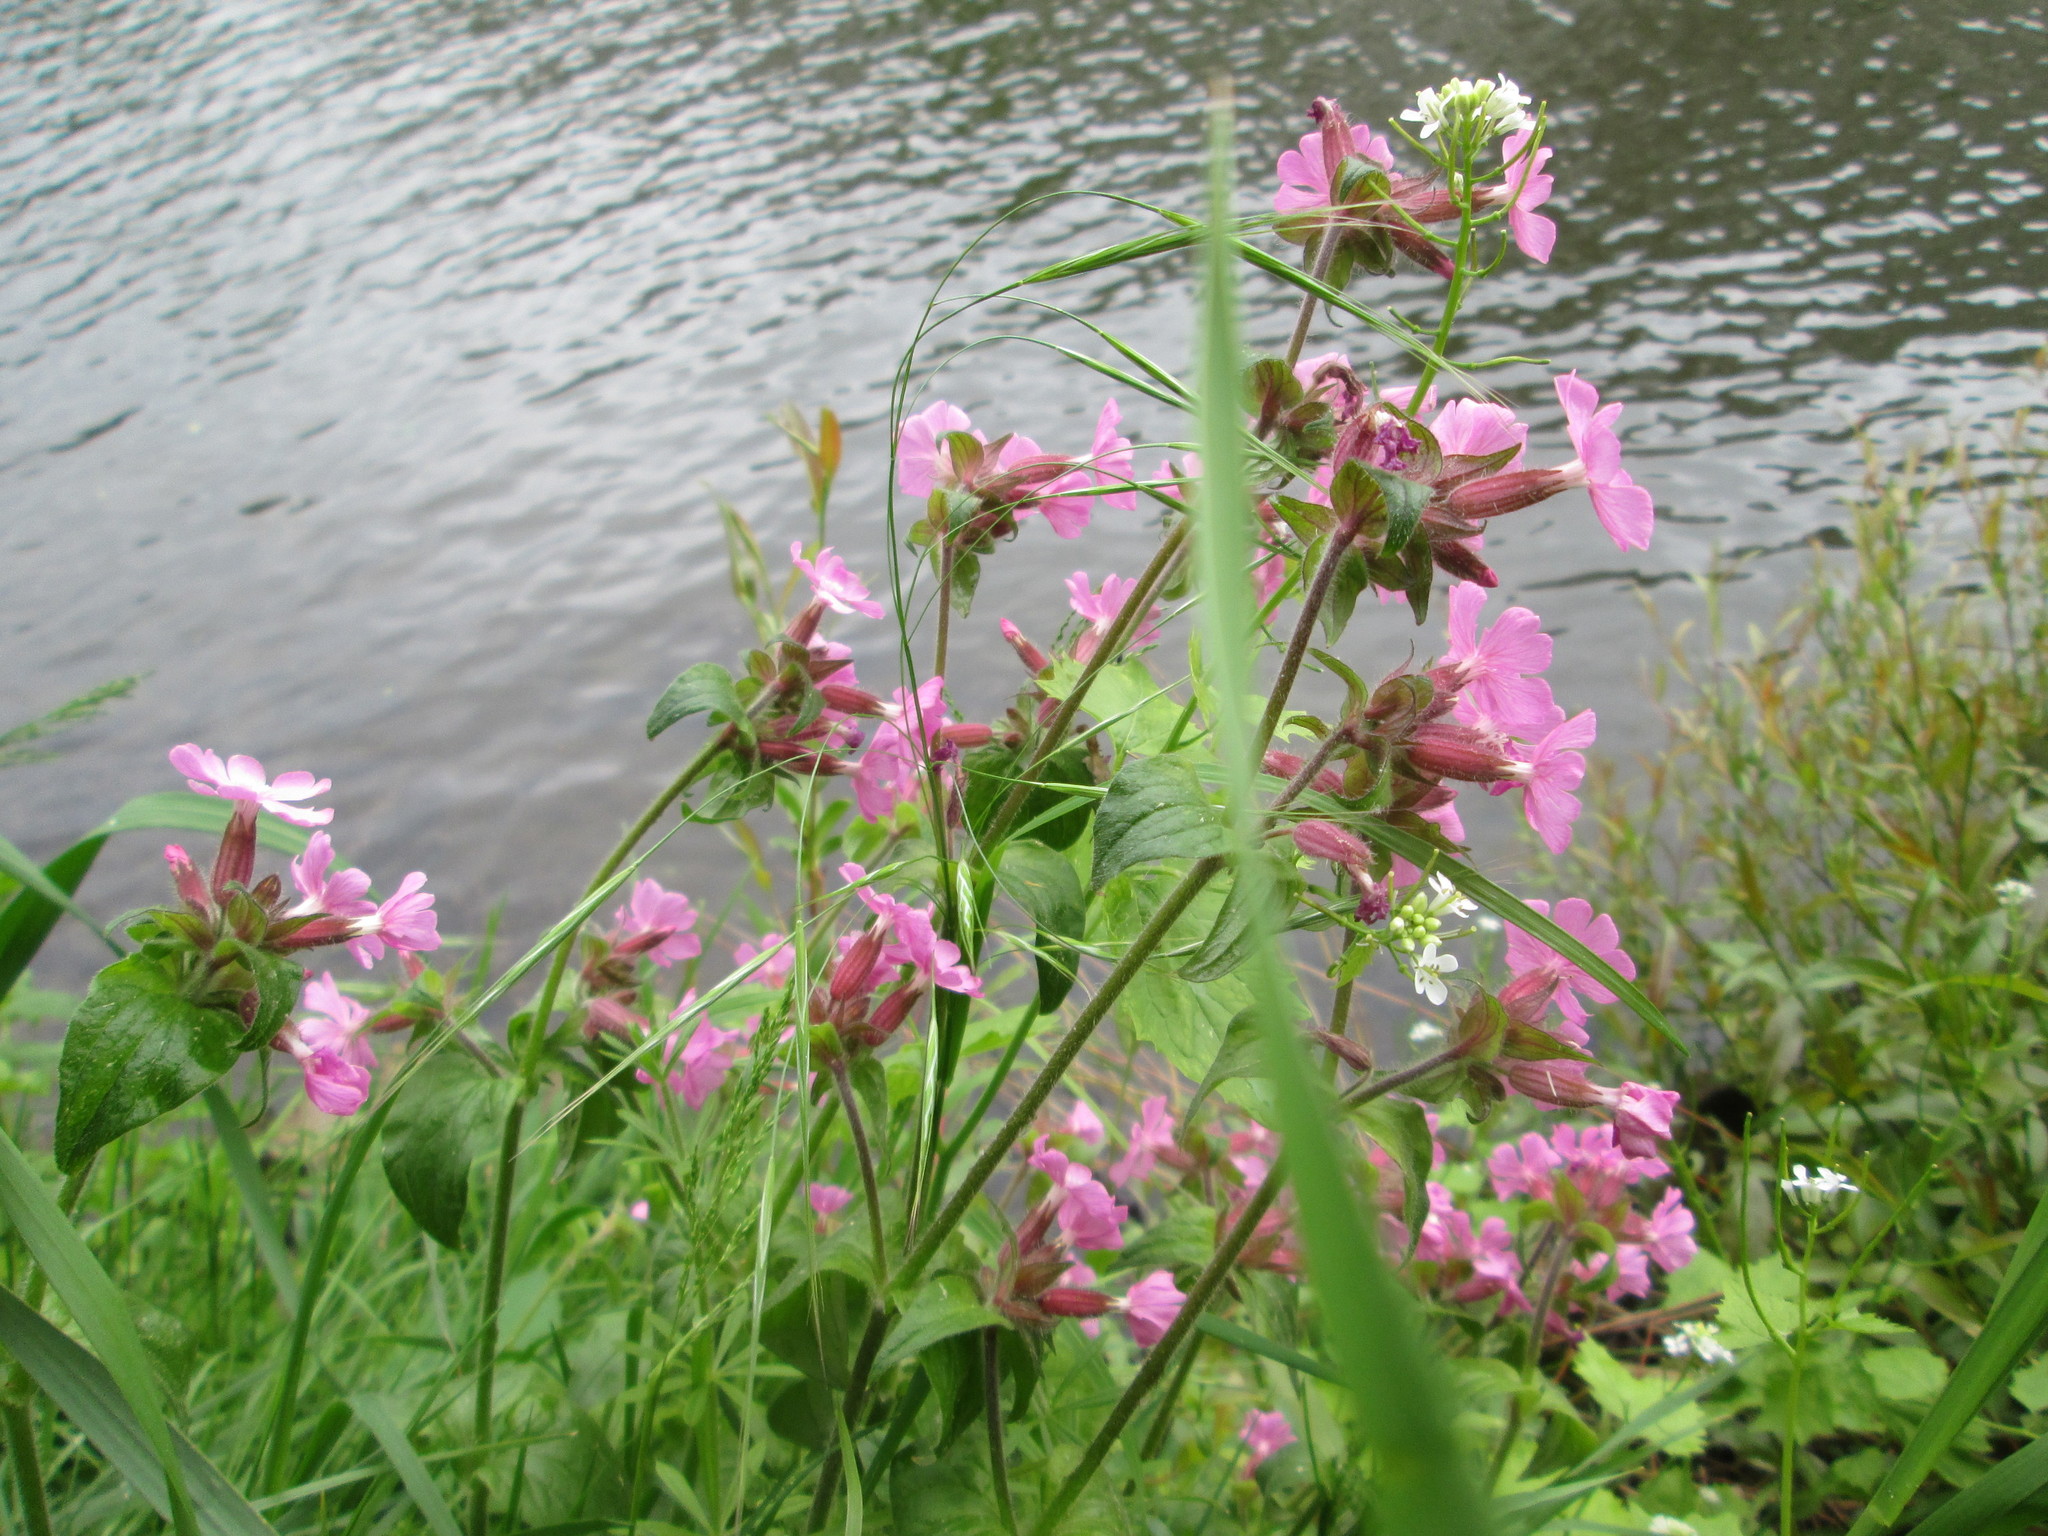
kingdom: Plantae
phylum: Tracheophyta
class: Magnoliopsida
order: Caryophyllales
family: Caryophyllaceae
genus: Silene
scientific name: Silene dioica
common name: Red campion
